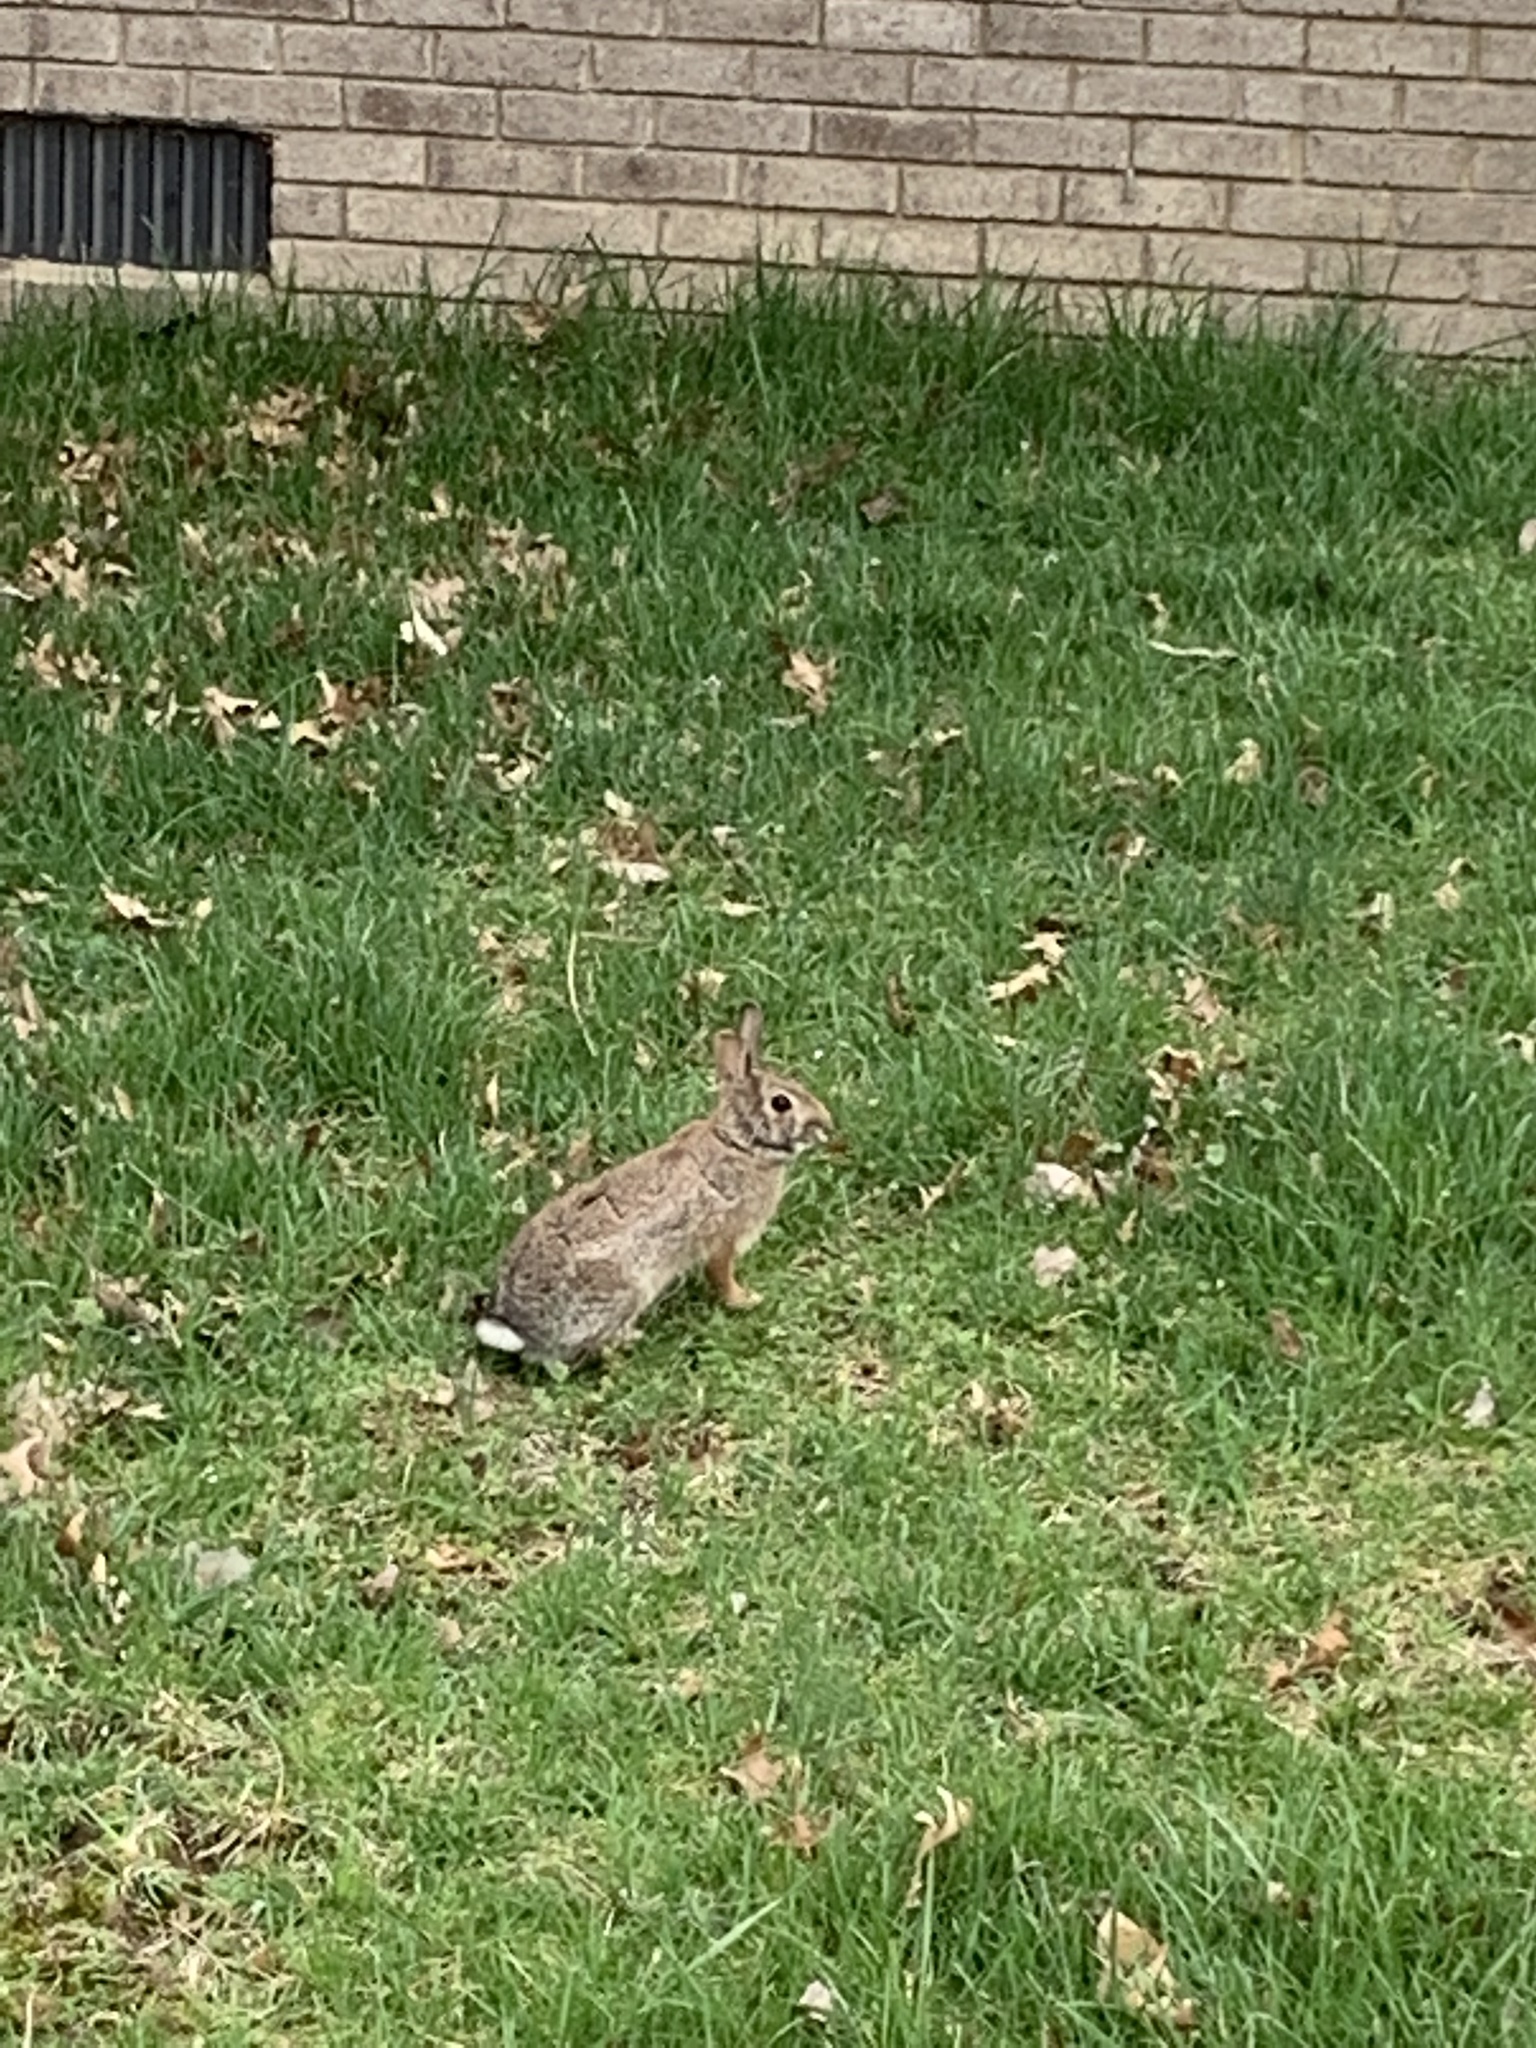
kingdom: Animalia
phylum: Chordata
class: Mammalia
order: Lagomorpha
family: Leporidae
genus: Sylvilagus
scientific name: Sylvilagus floridanus
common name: Eastern cottontail
